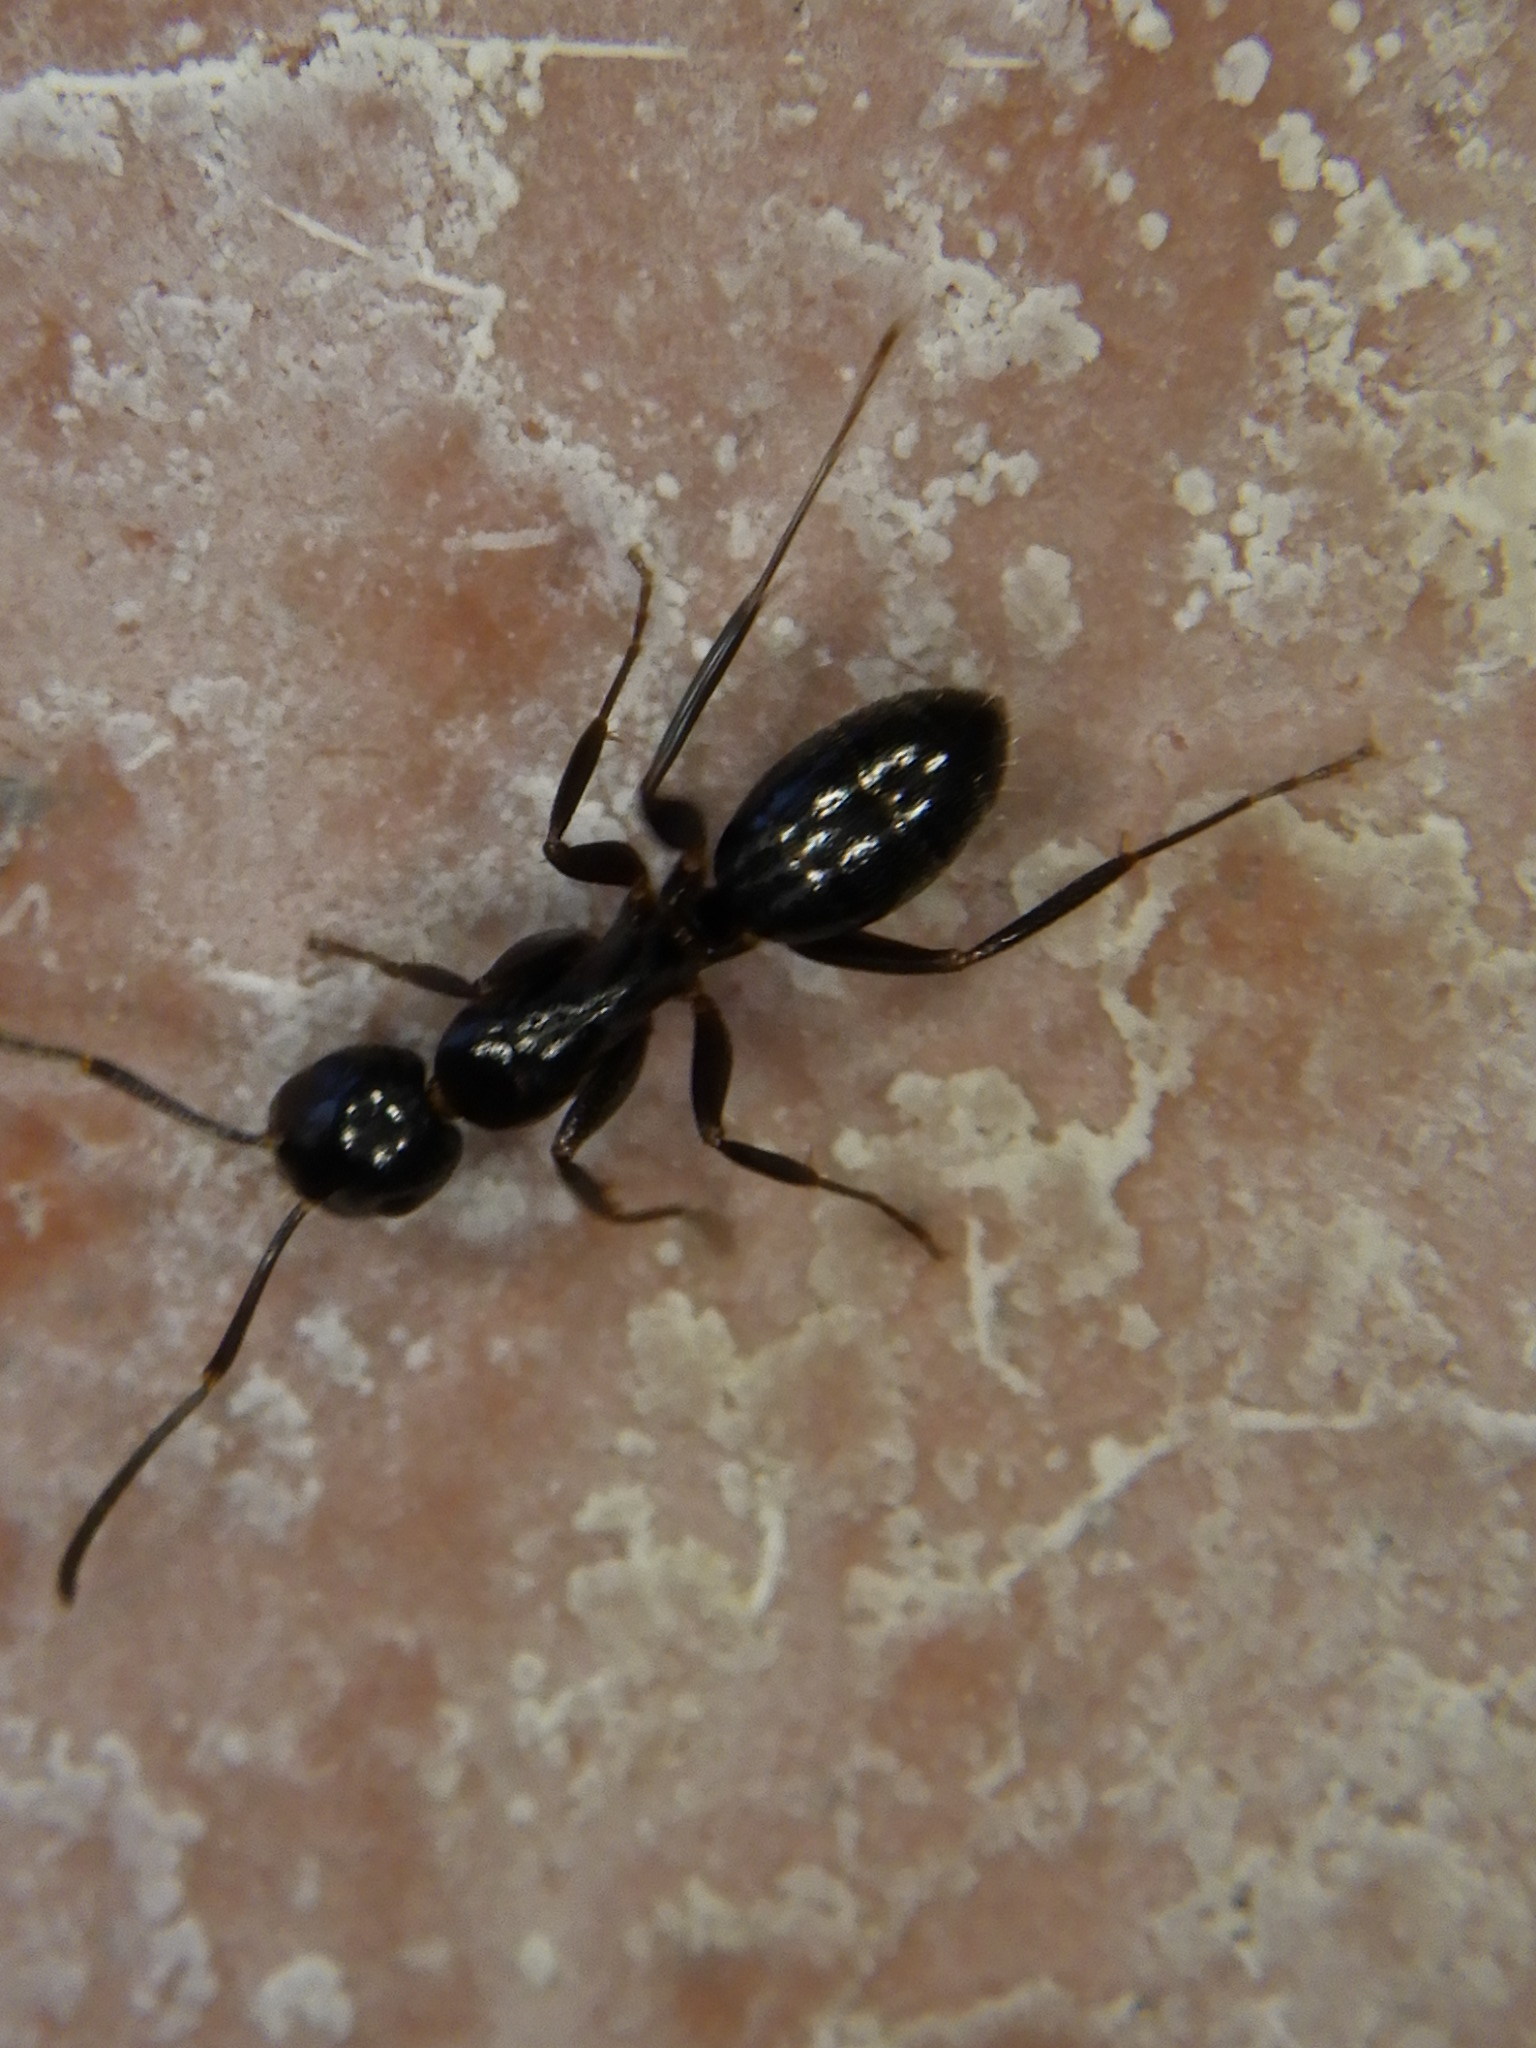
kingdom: Animalia
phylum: Arthropoda
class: Insecta
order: Hymenoptera
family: Formicidae
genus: Camponotus
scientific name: Camponotus nearcticus
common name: Smaller carpenter ant
